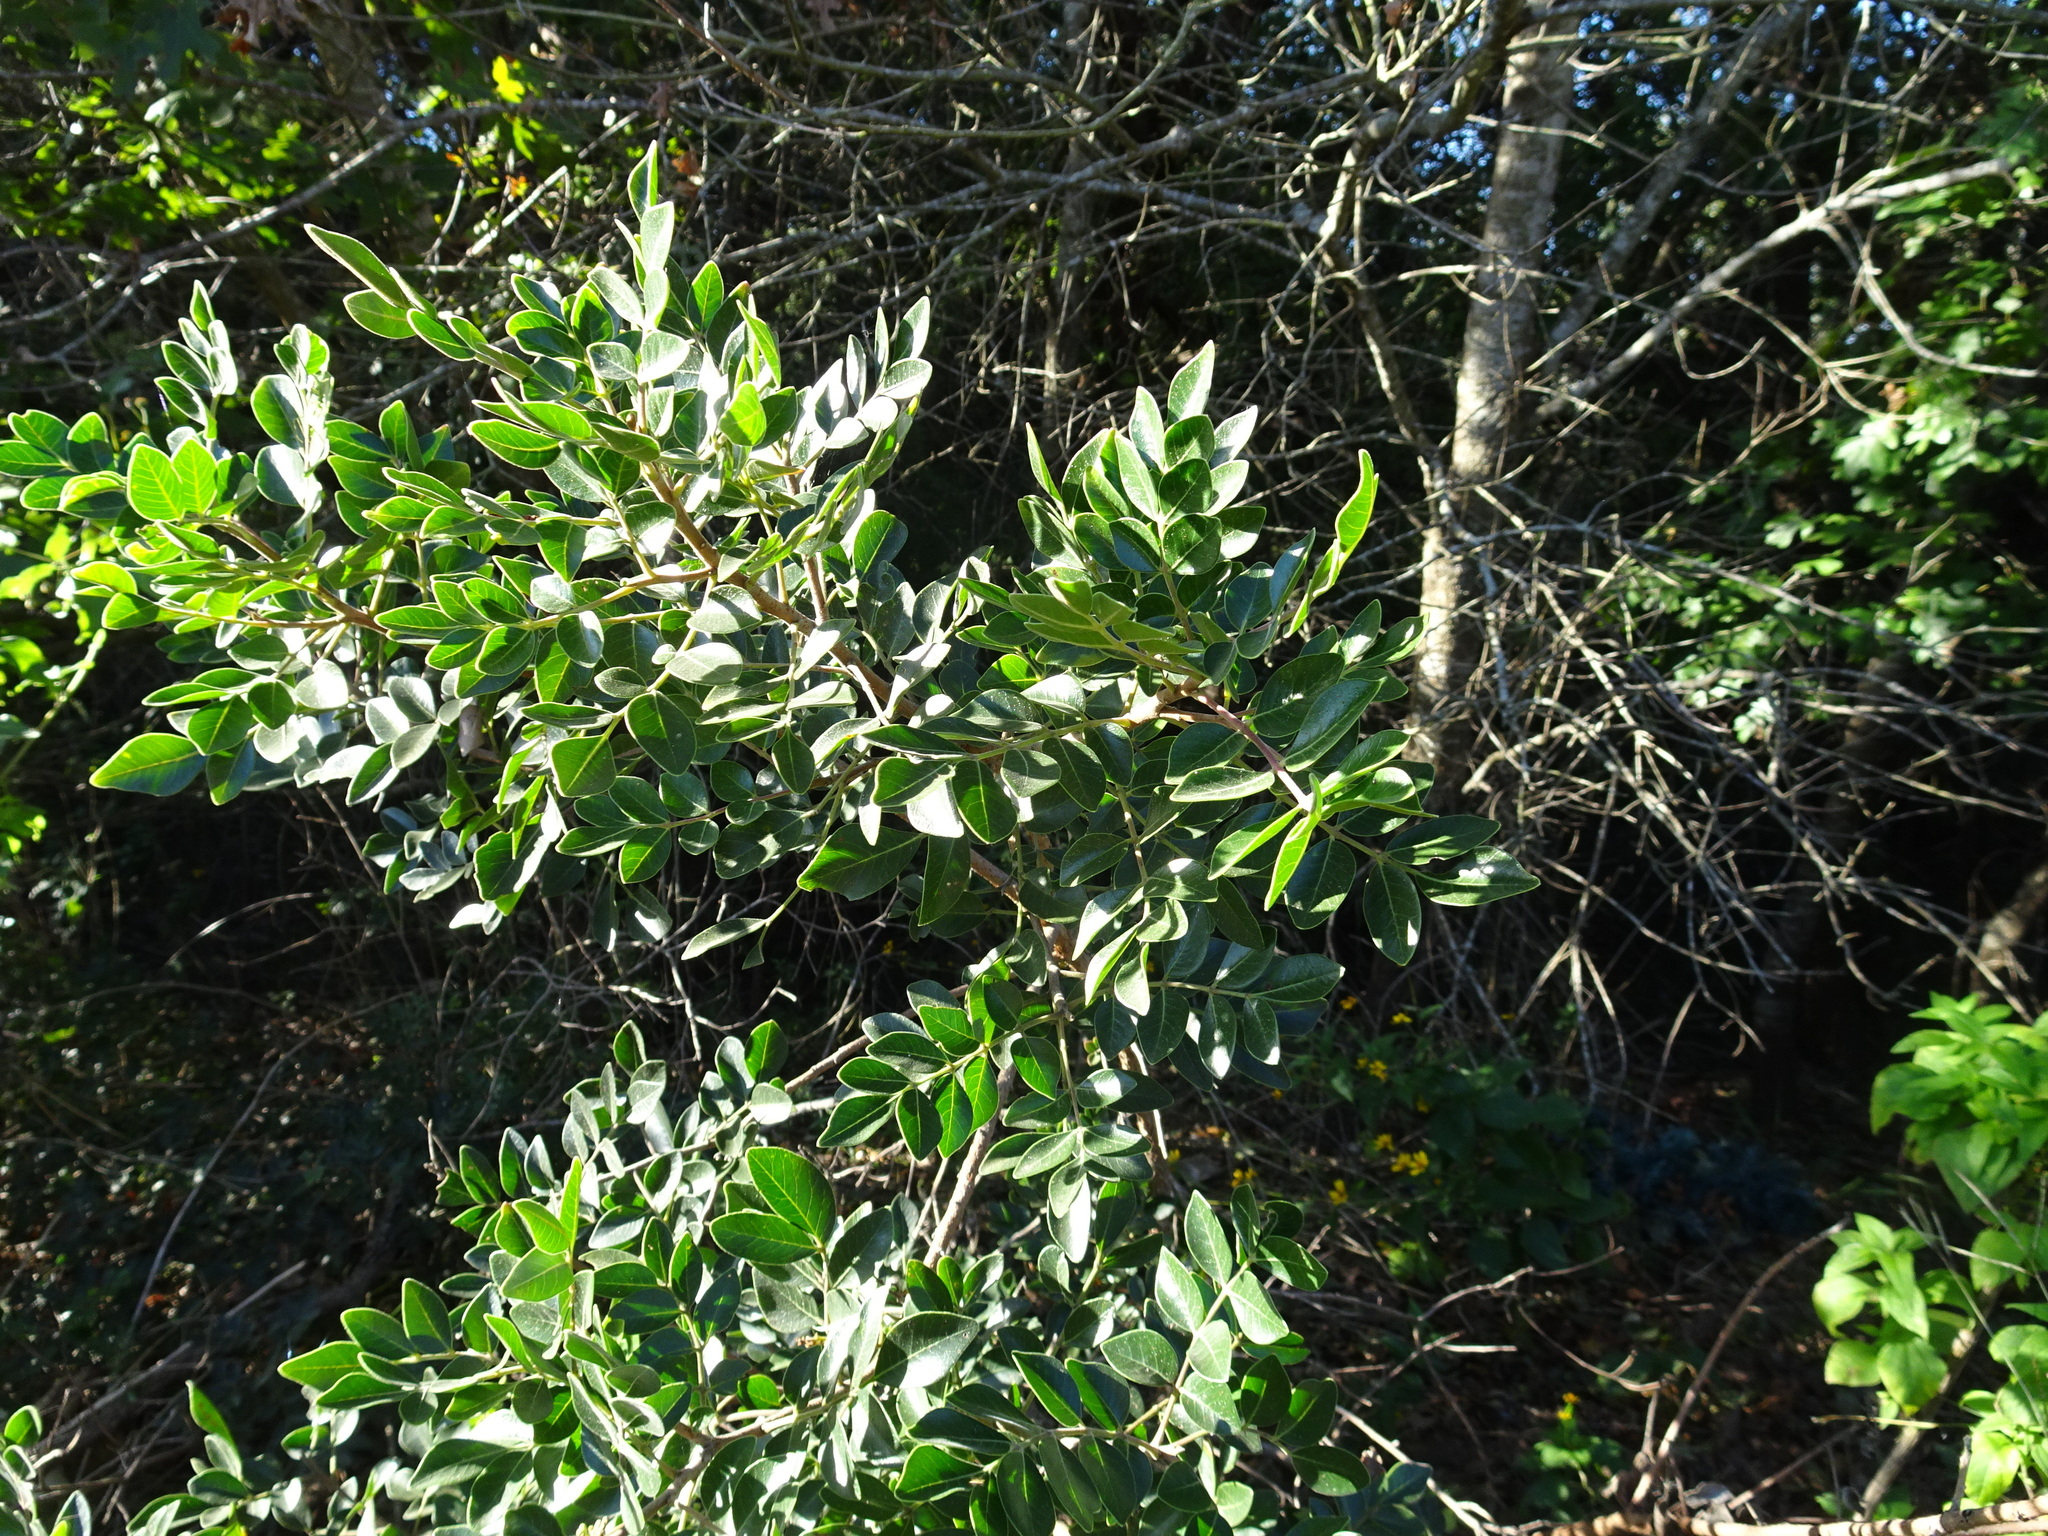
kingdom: Plantae
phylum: Tracheophyta
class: Magnoliopsida
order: Sapindales
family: Anacardiaceae
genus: Rhus
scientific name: Rhus virens
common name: Evergreen sumac
